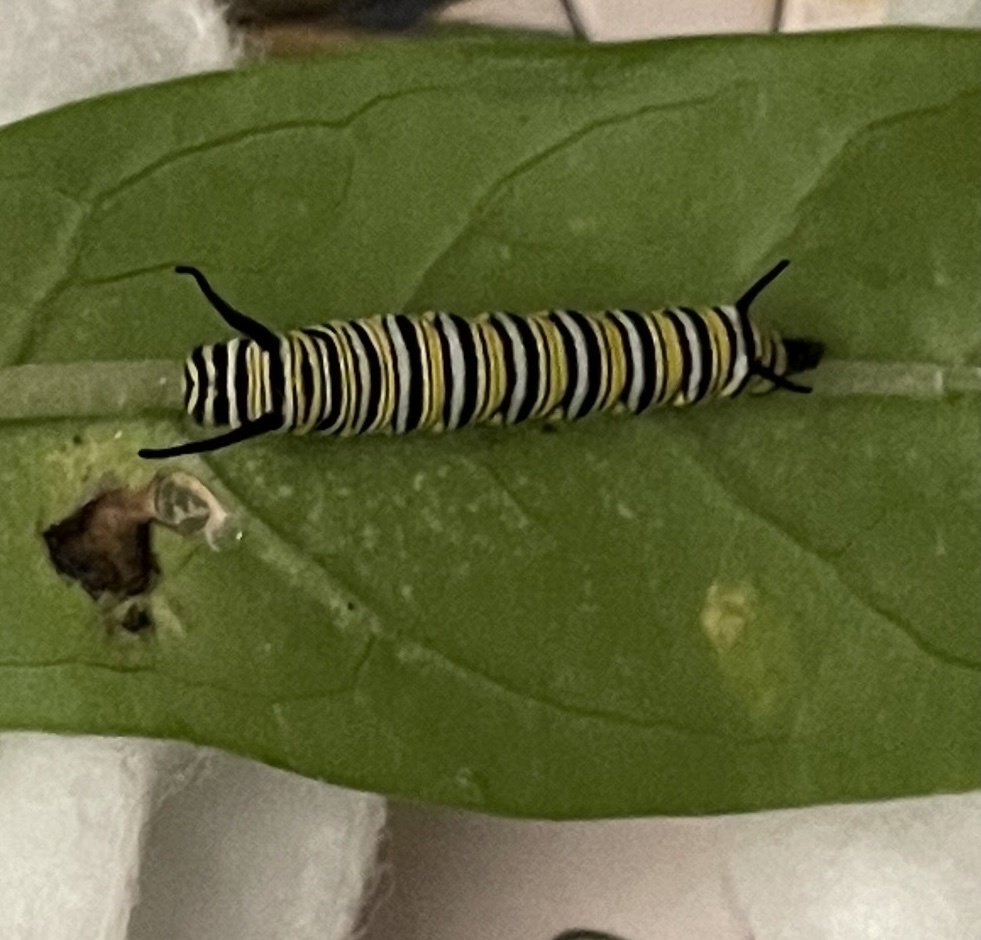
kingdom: Animalia
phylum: Arthropoda
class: Insecta
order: Lepidoptera
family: Nymphalidae
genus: Danaus
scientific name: Danaus plexippus
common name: Monarch
